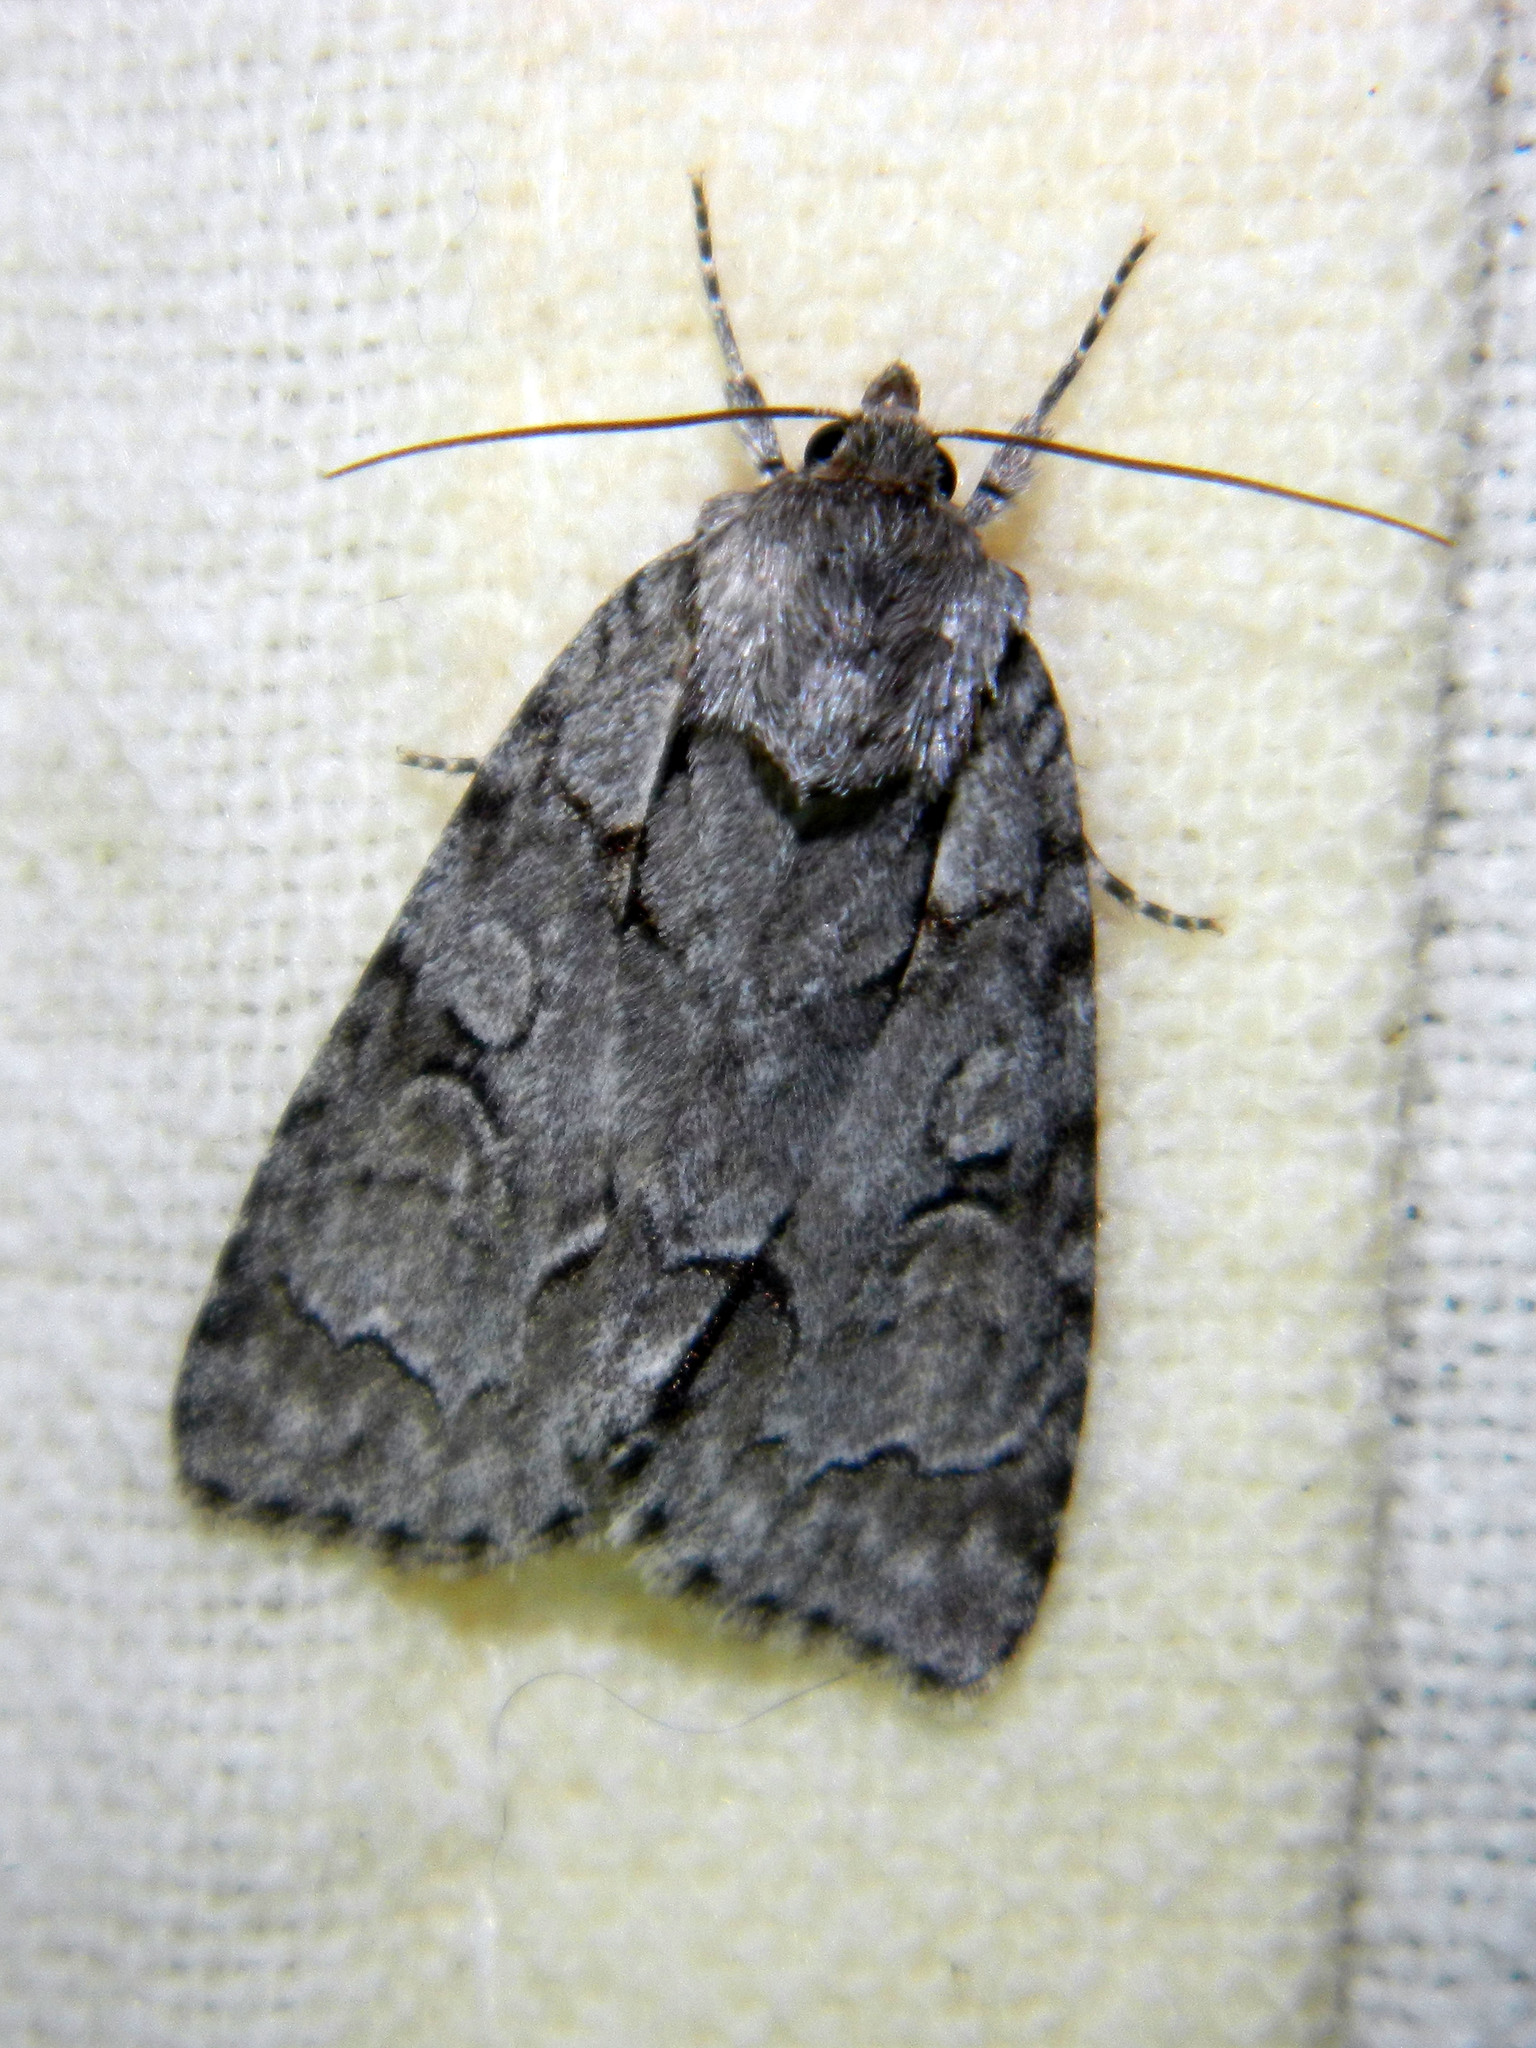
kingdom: Animalia
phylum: Arthropoda
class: Insecta
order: Lepidoptera
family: Noctuidae
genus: Acronicta
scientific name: Acronicta grisea
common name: Gray dagger
